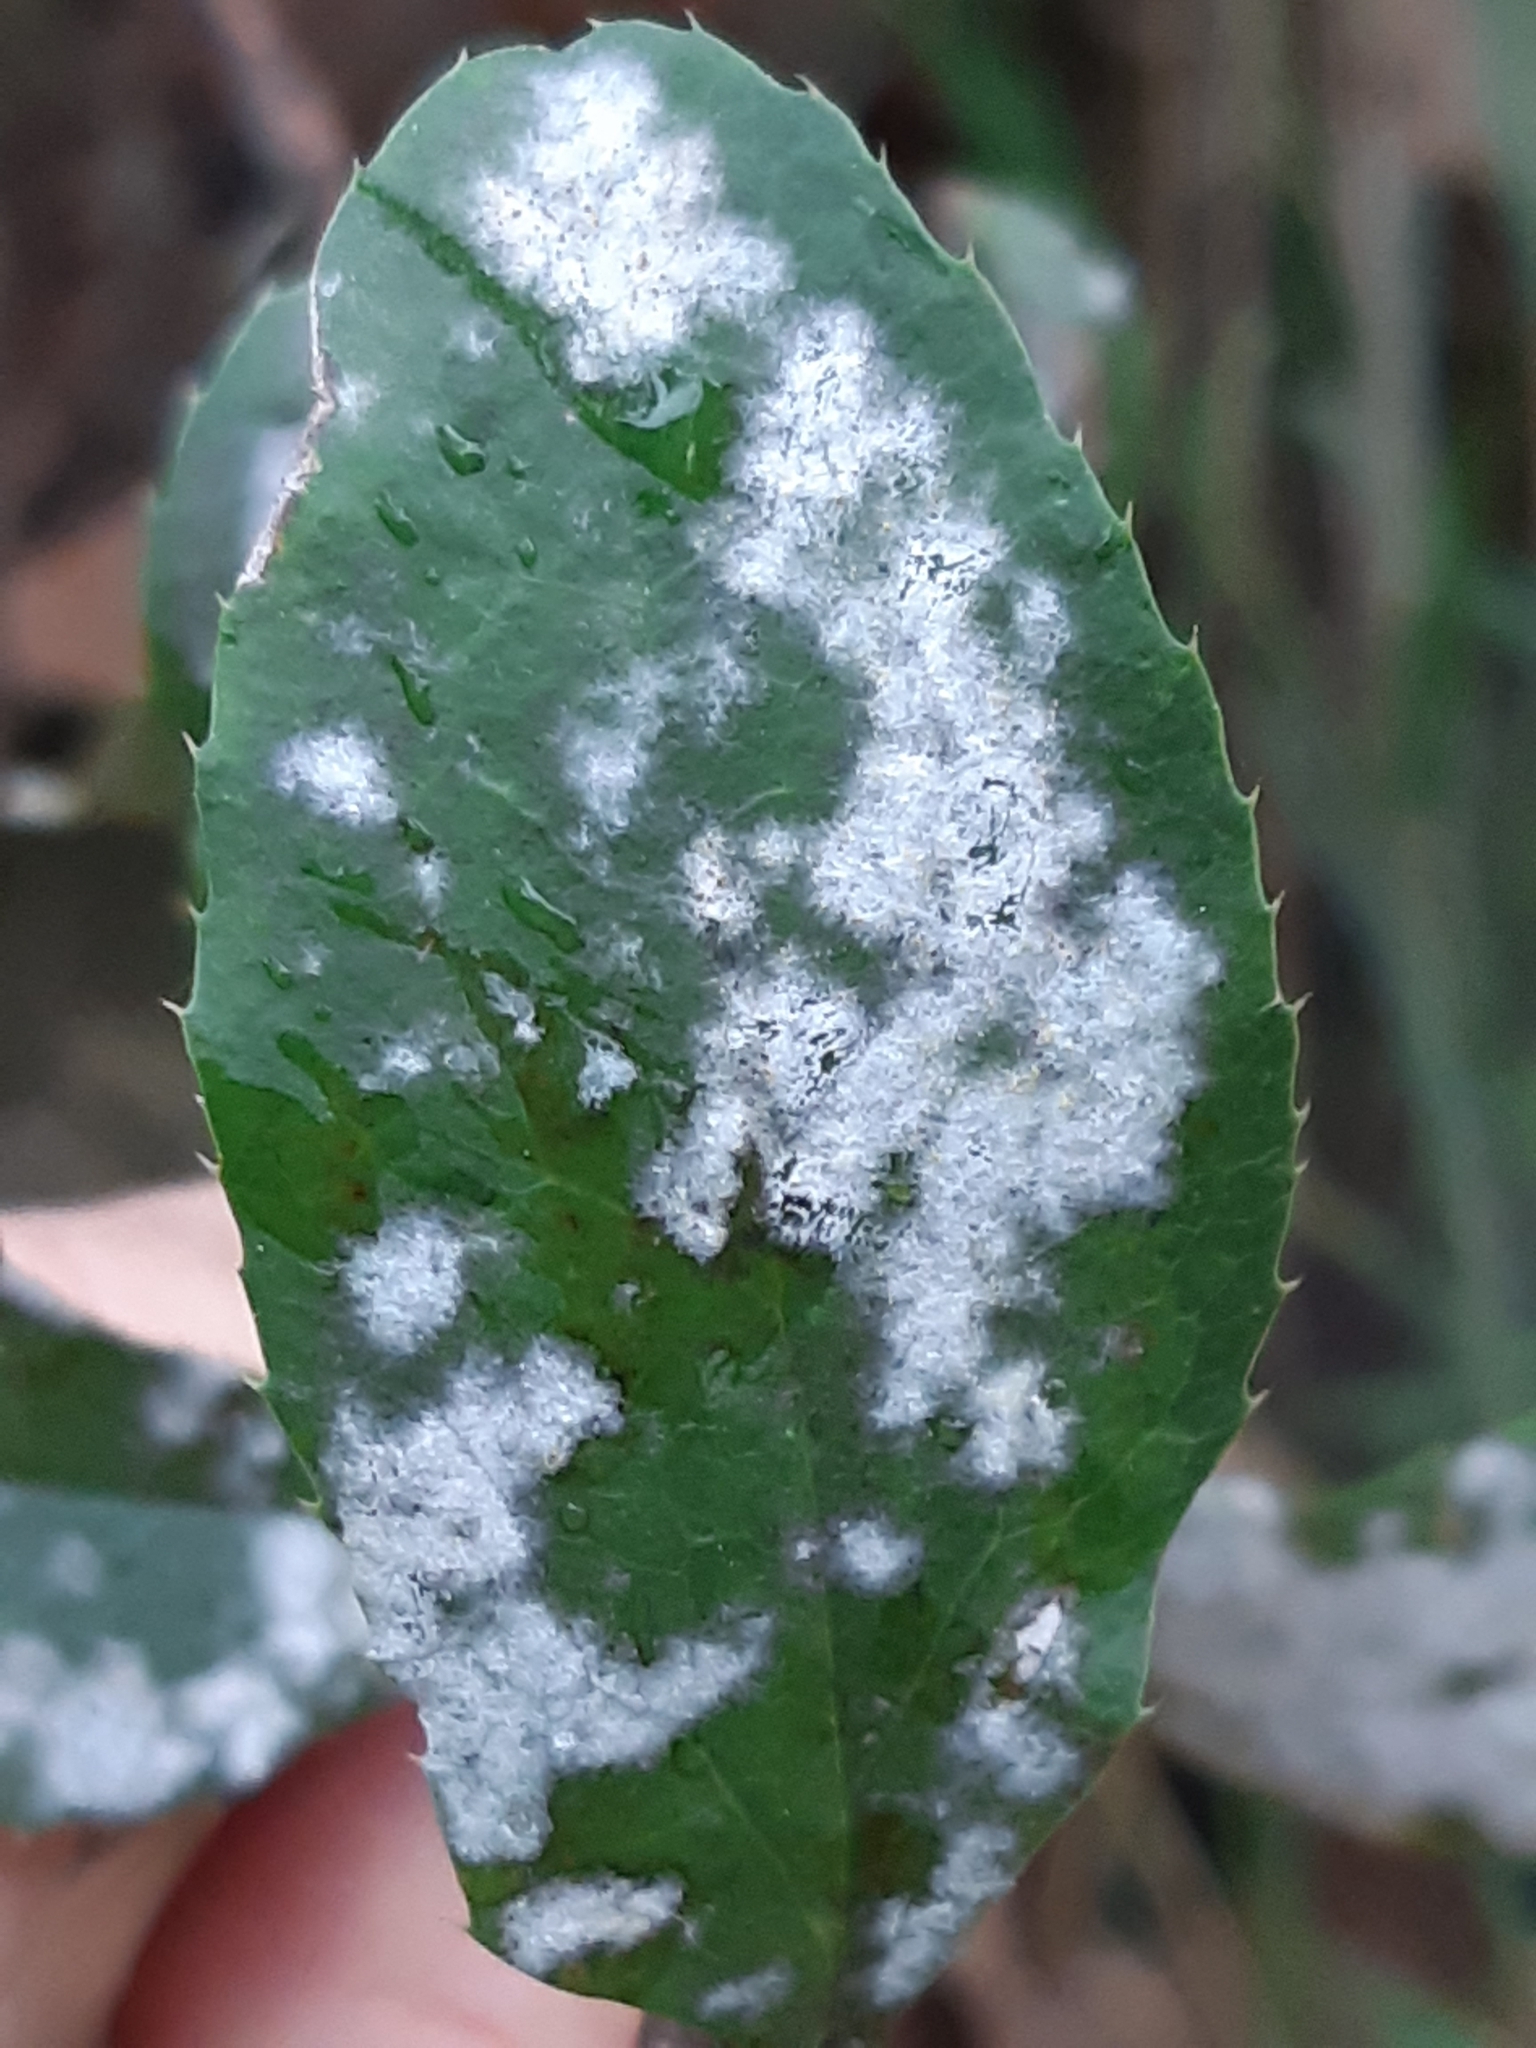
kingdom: Fungi
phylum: Ascomycota
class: Leotiomycetes
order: Helotiales
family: Erysiphaceae
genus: Erysiphe
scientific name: Erysiphe berberidis
